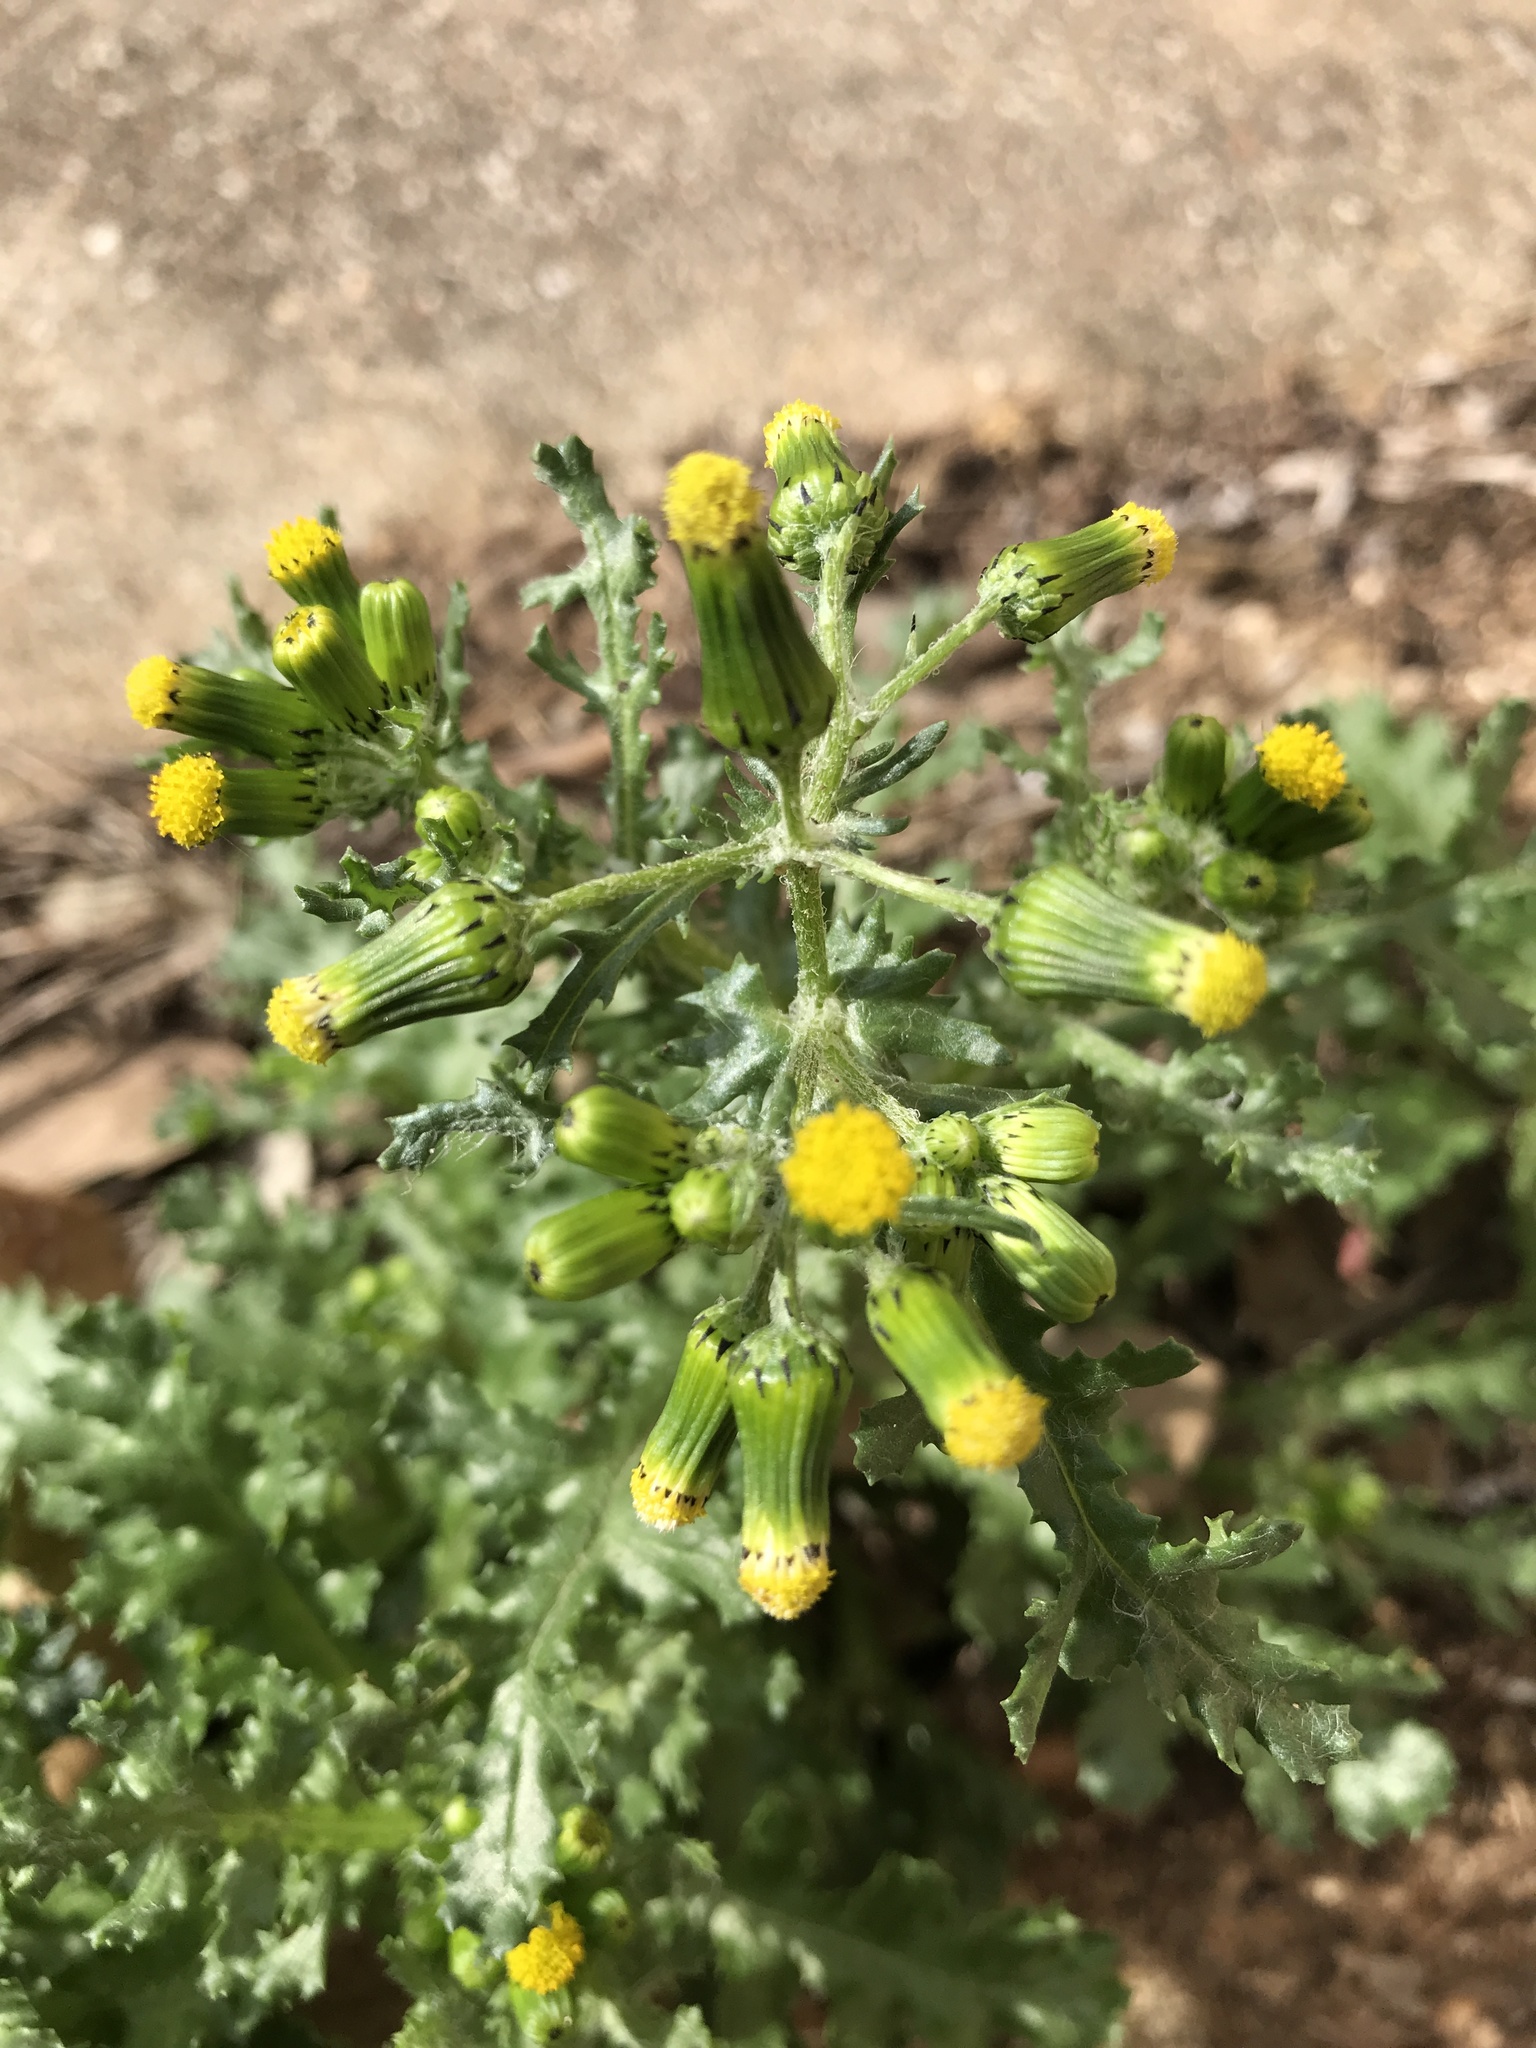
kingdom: Plantae
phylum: Tracheophyta
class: Magnoliopsida
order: Asterales
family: Asteraceae
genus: Senecio
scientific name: Senecio vulgaris
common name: Old-man-in-the-spring
